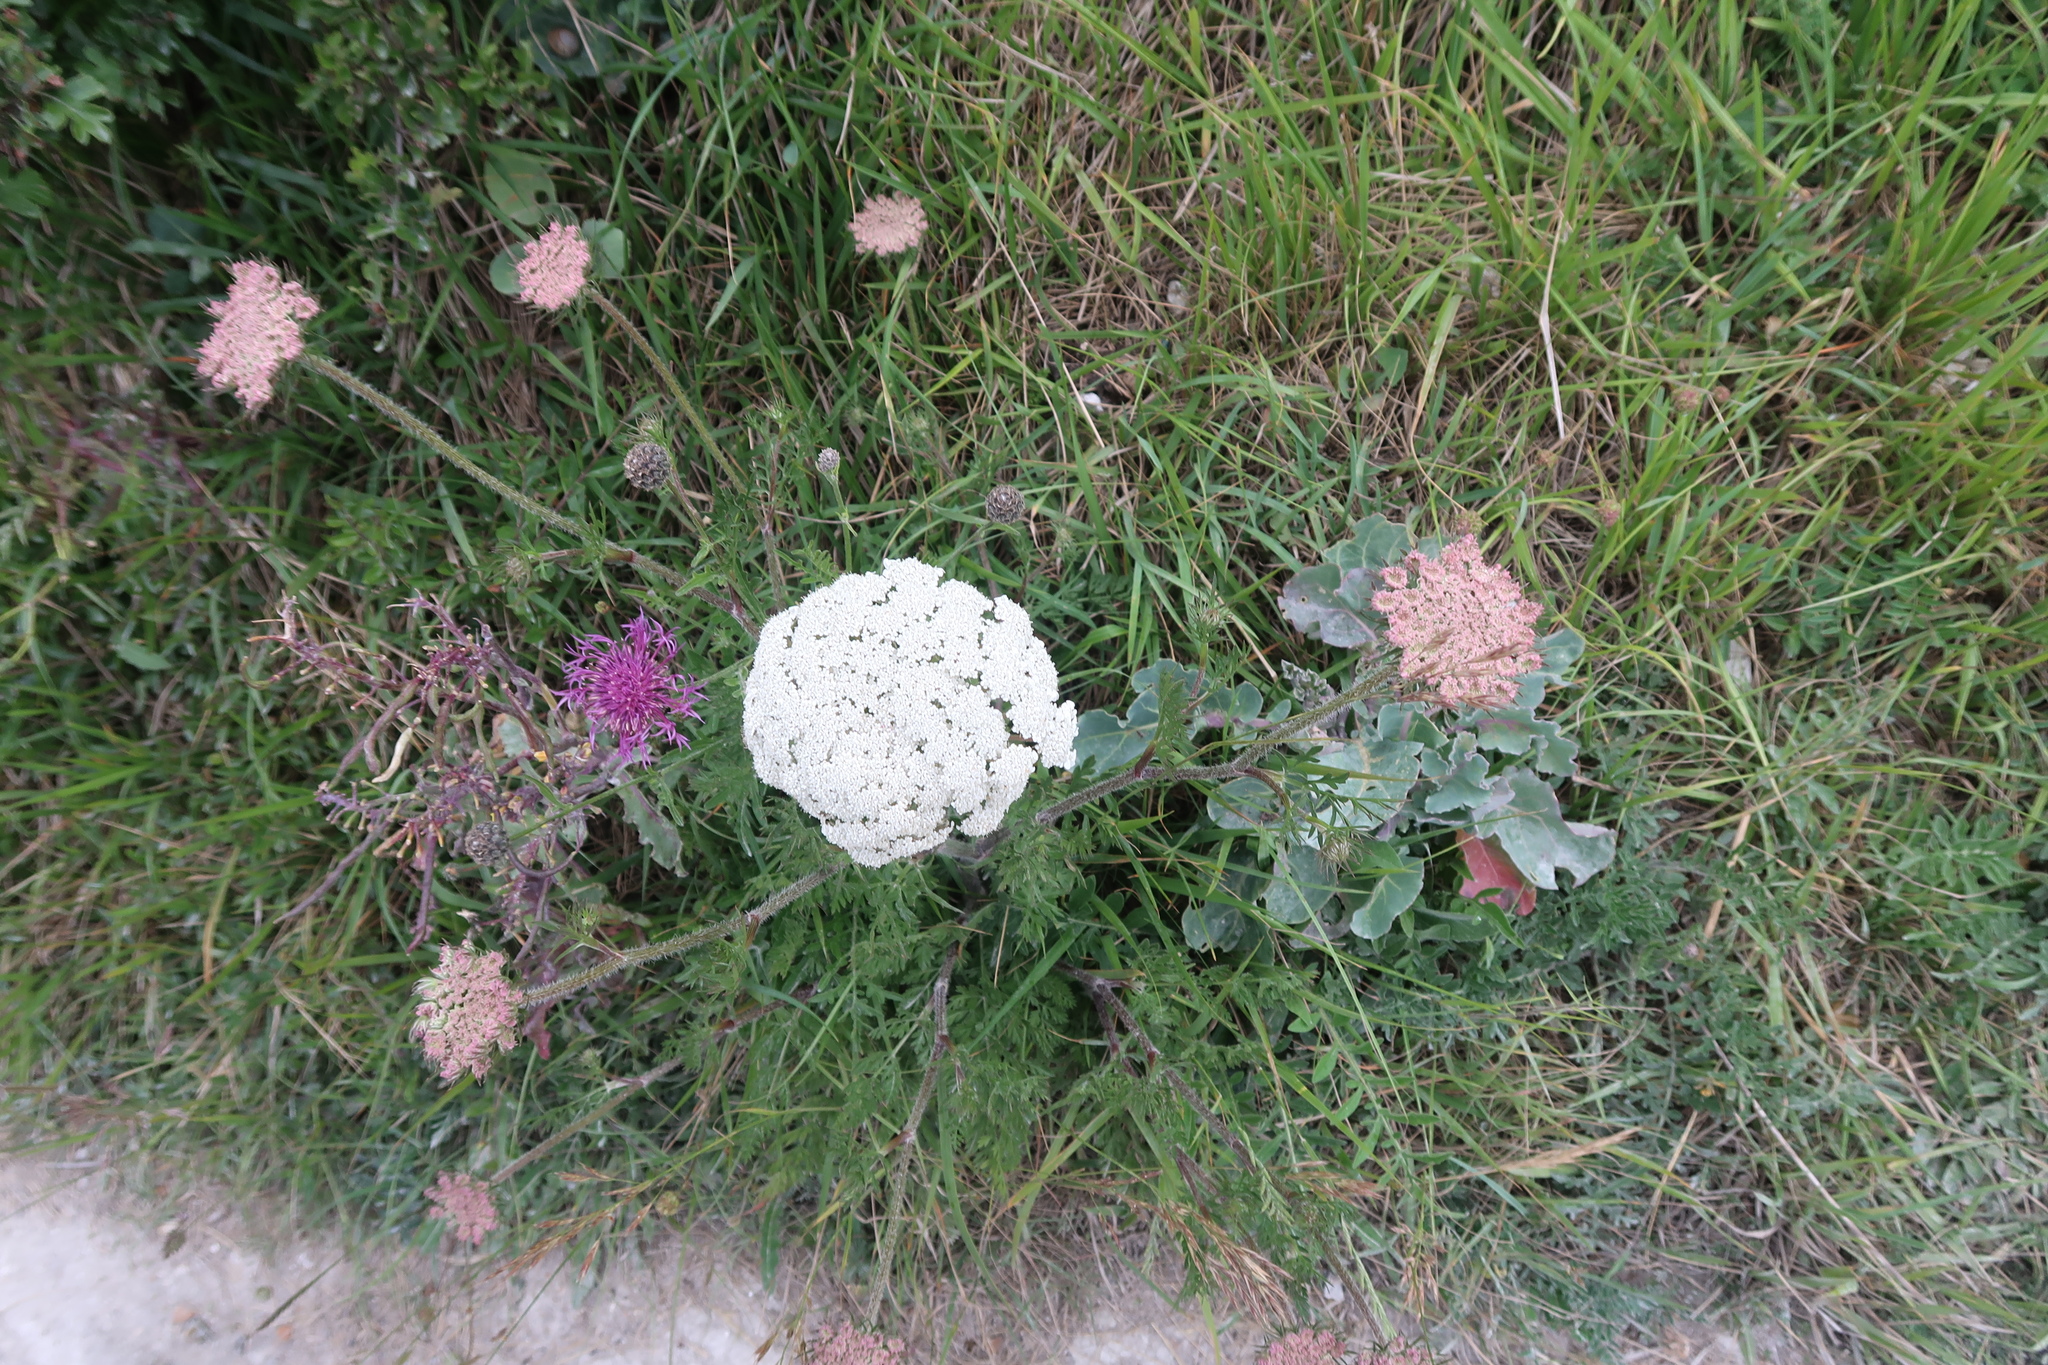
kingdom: Plantae
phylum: Tracheophyta
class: Magnoliopsida
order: Apiales
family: Apiaceae
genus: Daucus
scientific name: Daucus carota
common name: Wild carrot
